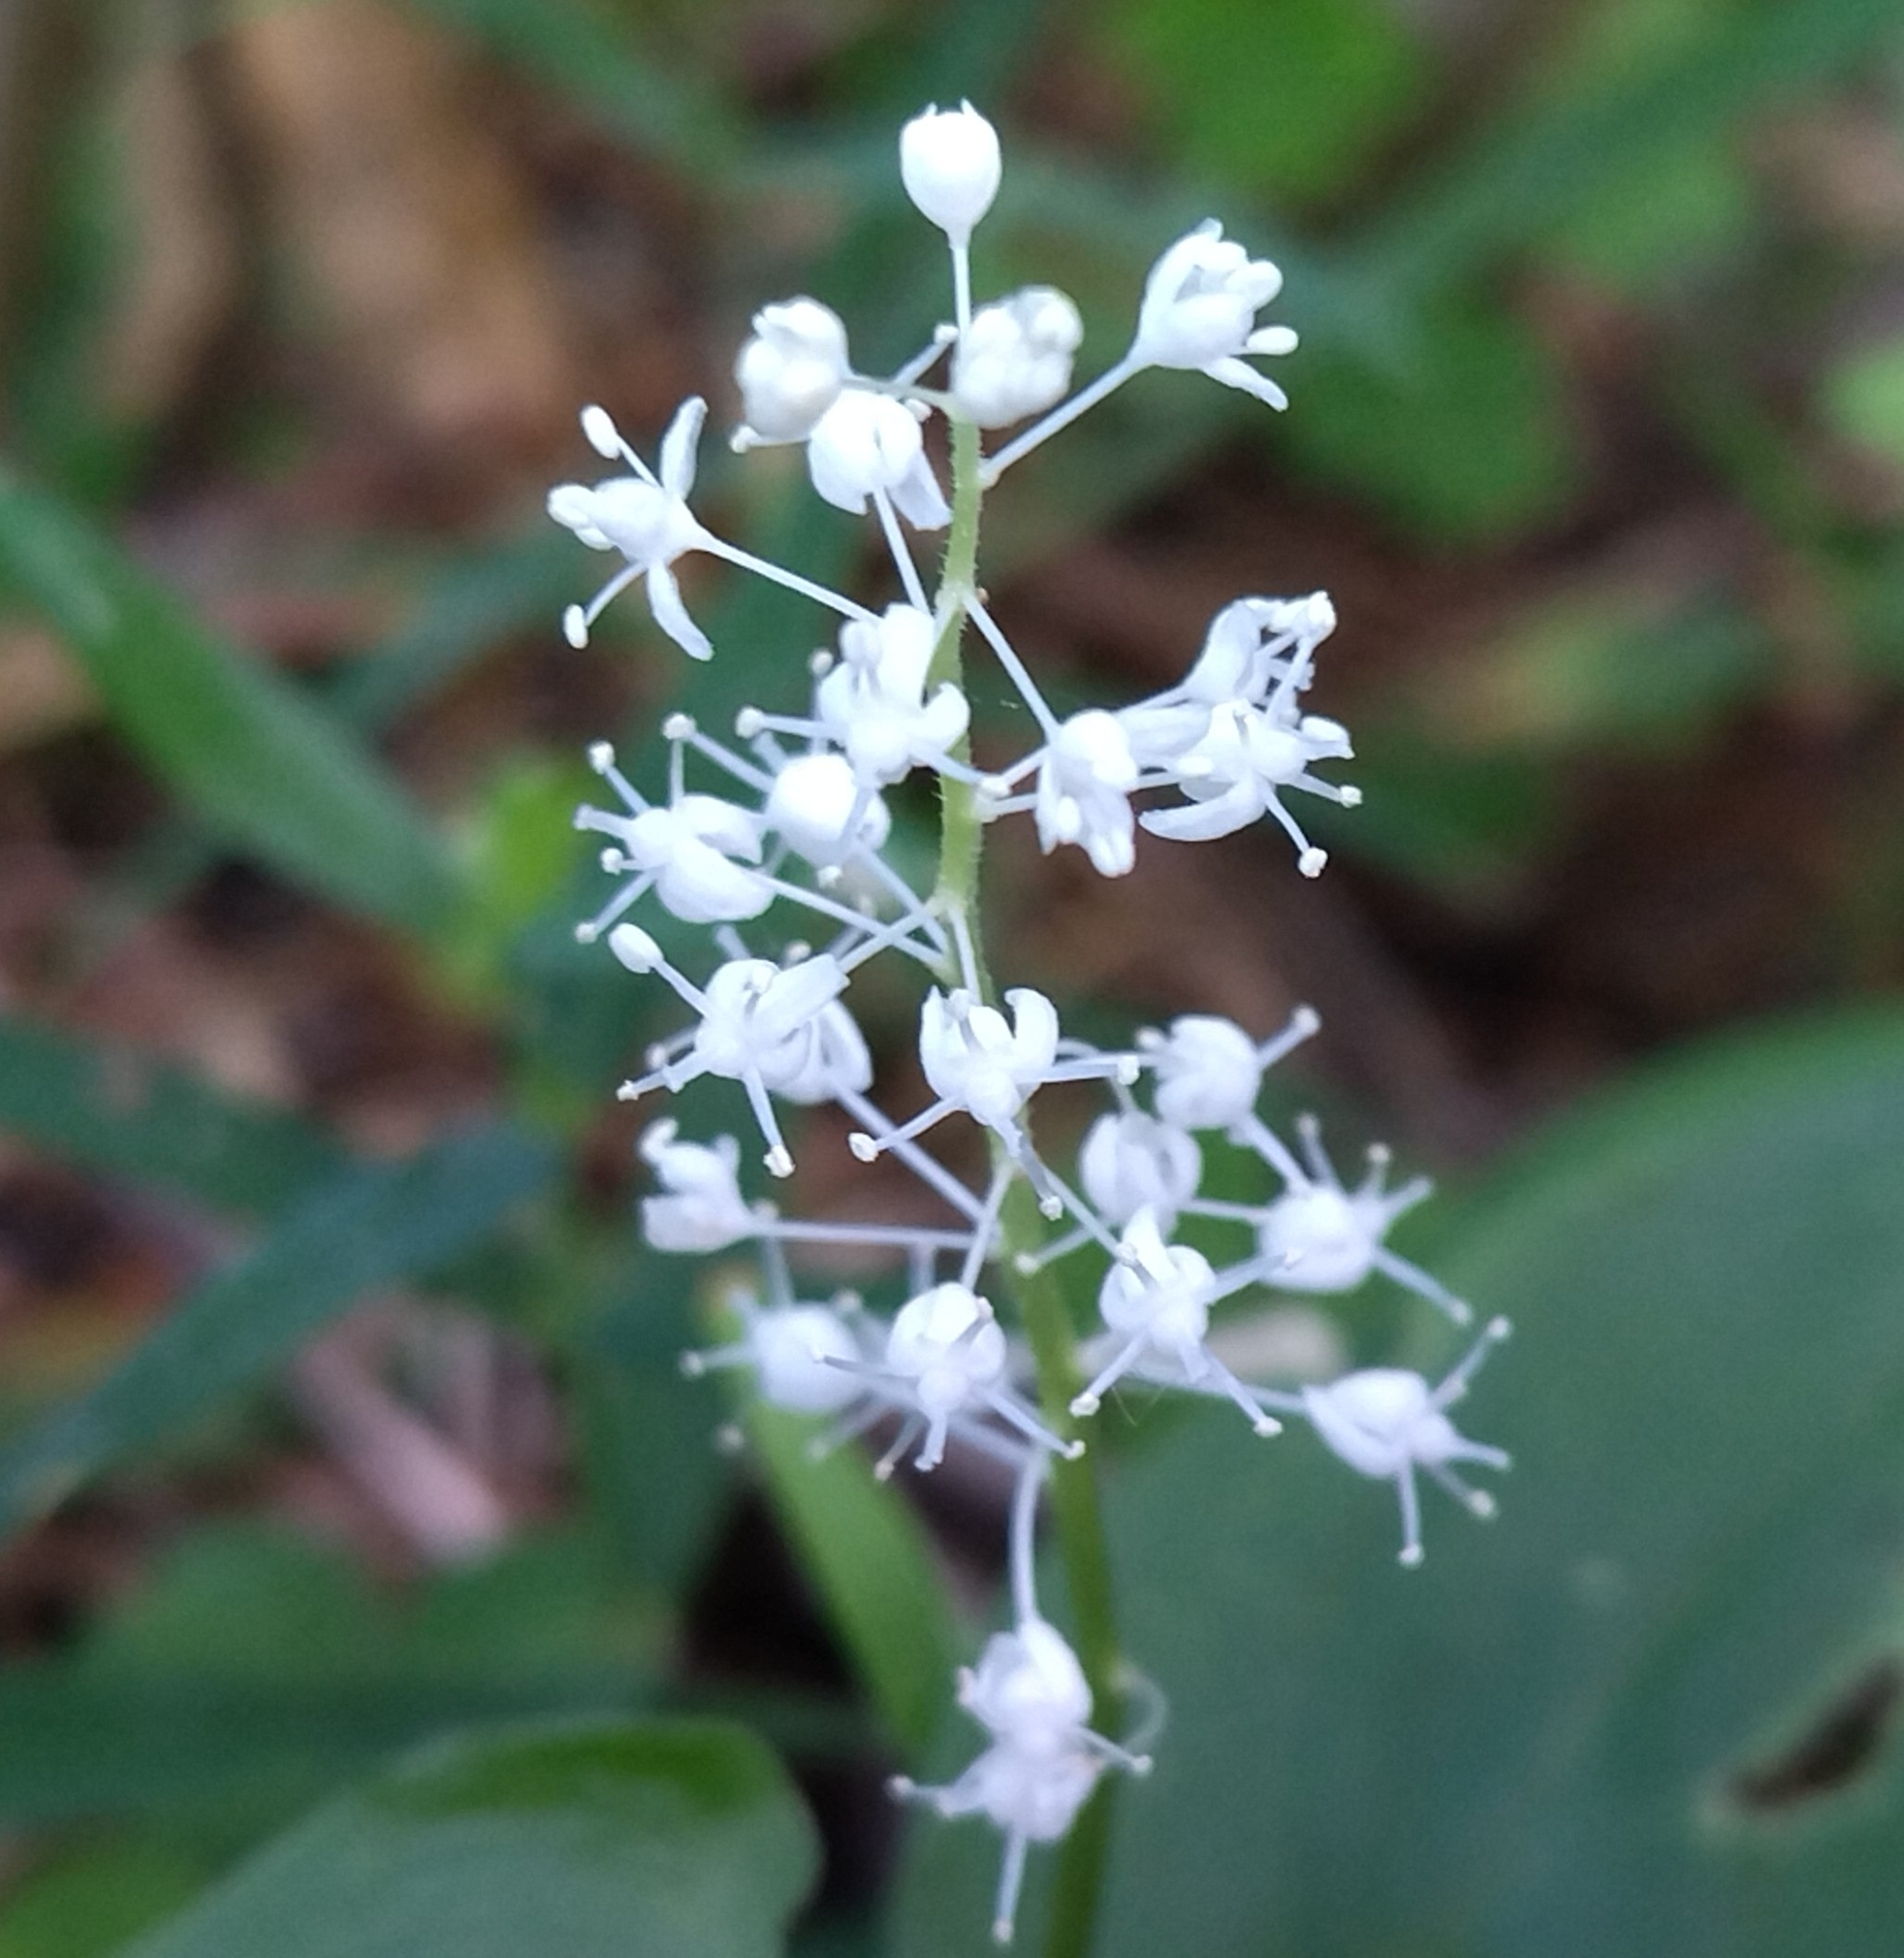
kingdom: Plantae
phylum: Tracheophyta
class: Liliopsida
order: Asparagales
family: Asparagaceae
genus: Maianthemum
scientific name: Maianthemum bifolium
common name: May lily
